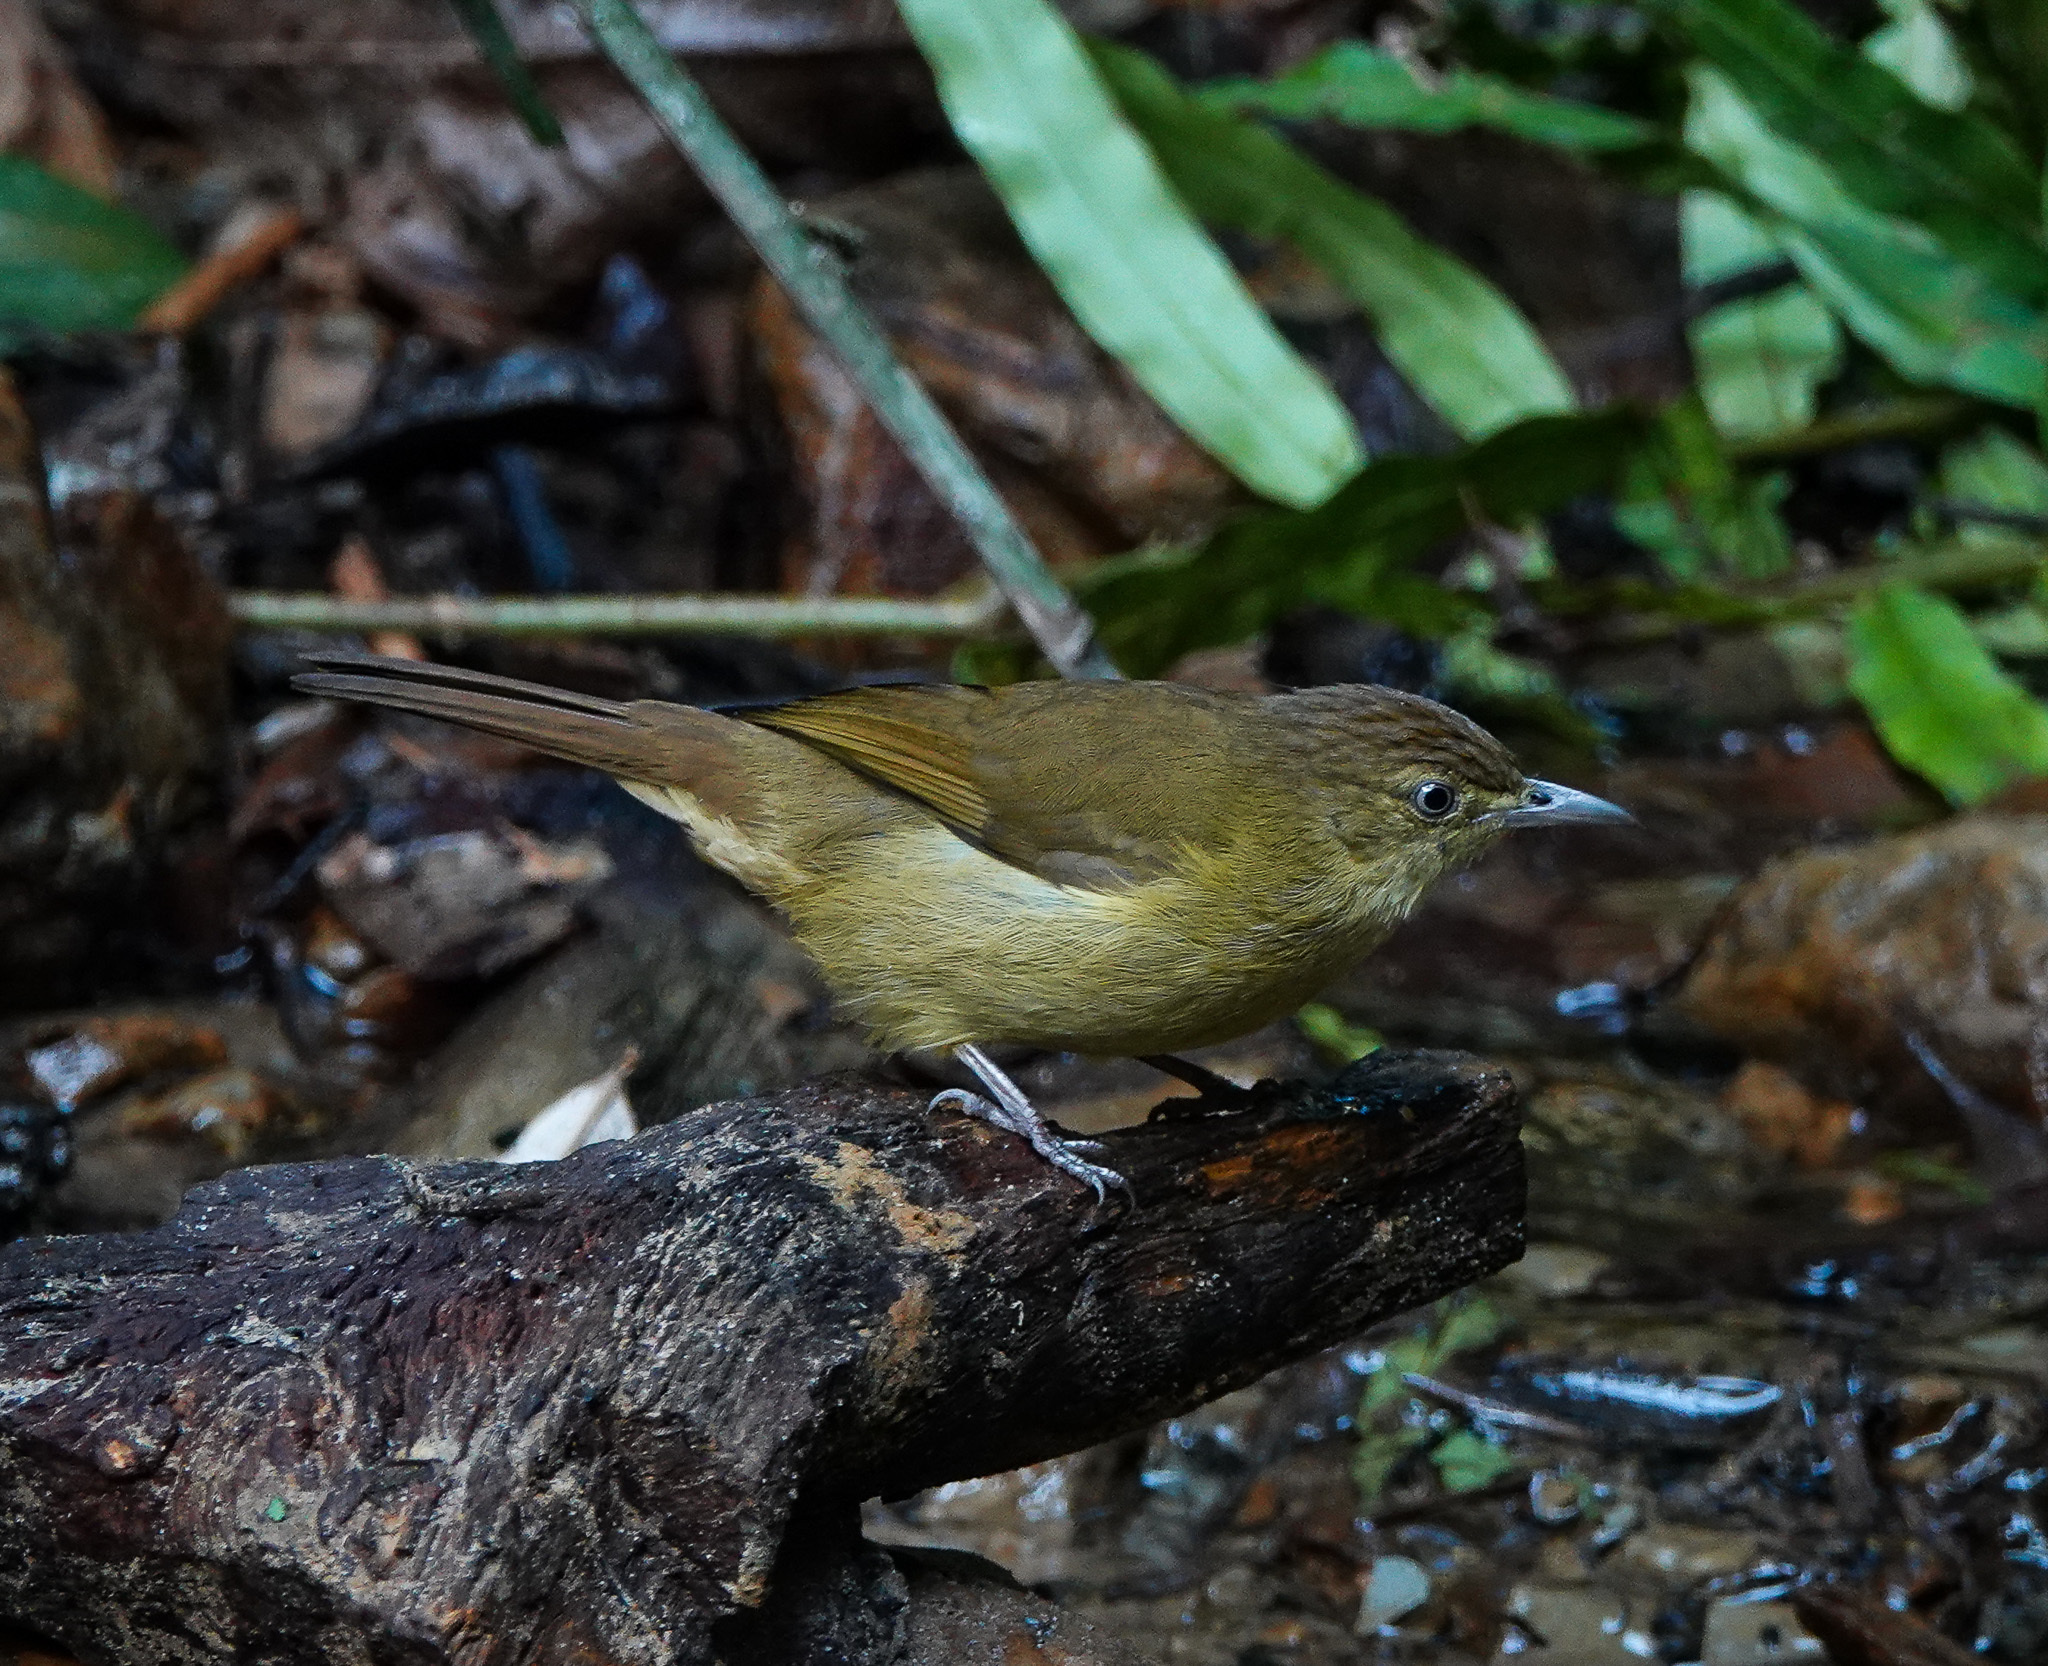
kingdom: Animalia
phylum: Chordata
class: Aves
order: Passeriformes
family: Pycnonotidae
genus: Iole
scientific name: Iole virescens
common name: Olive bulbul
